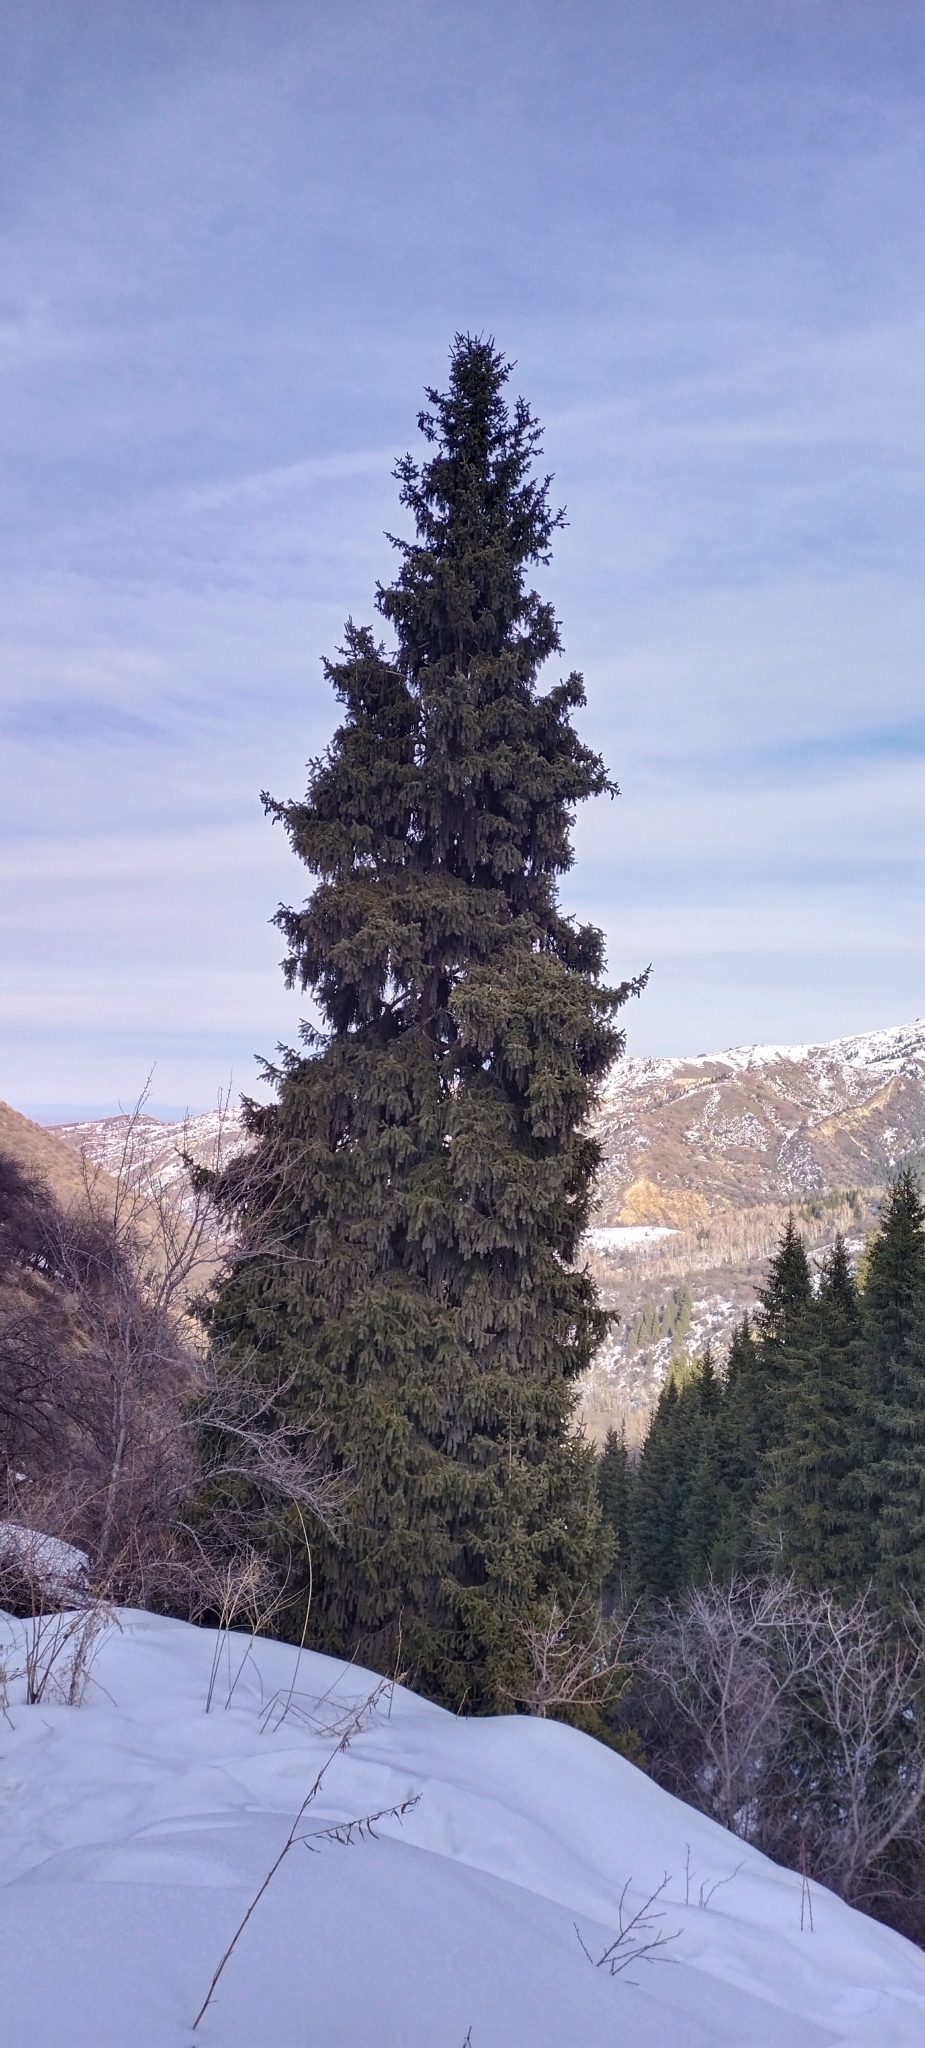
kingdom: Plantae
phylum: Tracheophyta
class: Pinopsida
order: Pinales
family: Pinaceae
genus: Picea
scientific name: Picea schrenkiana
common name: Asian spruce
